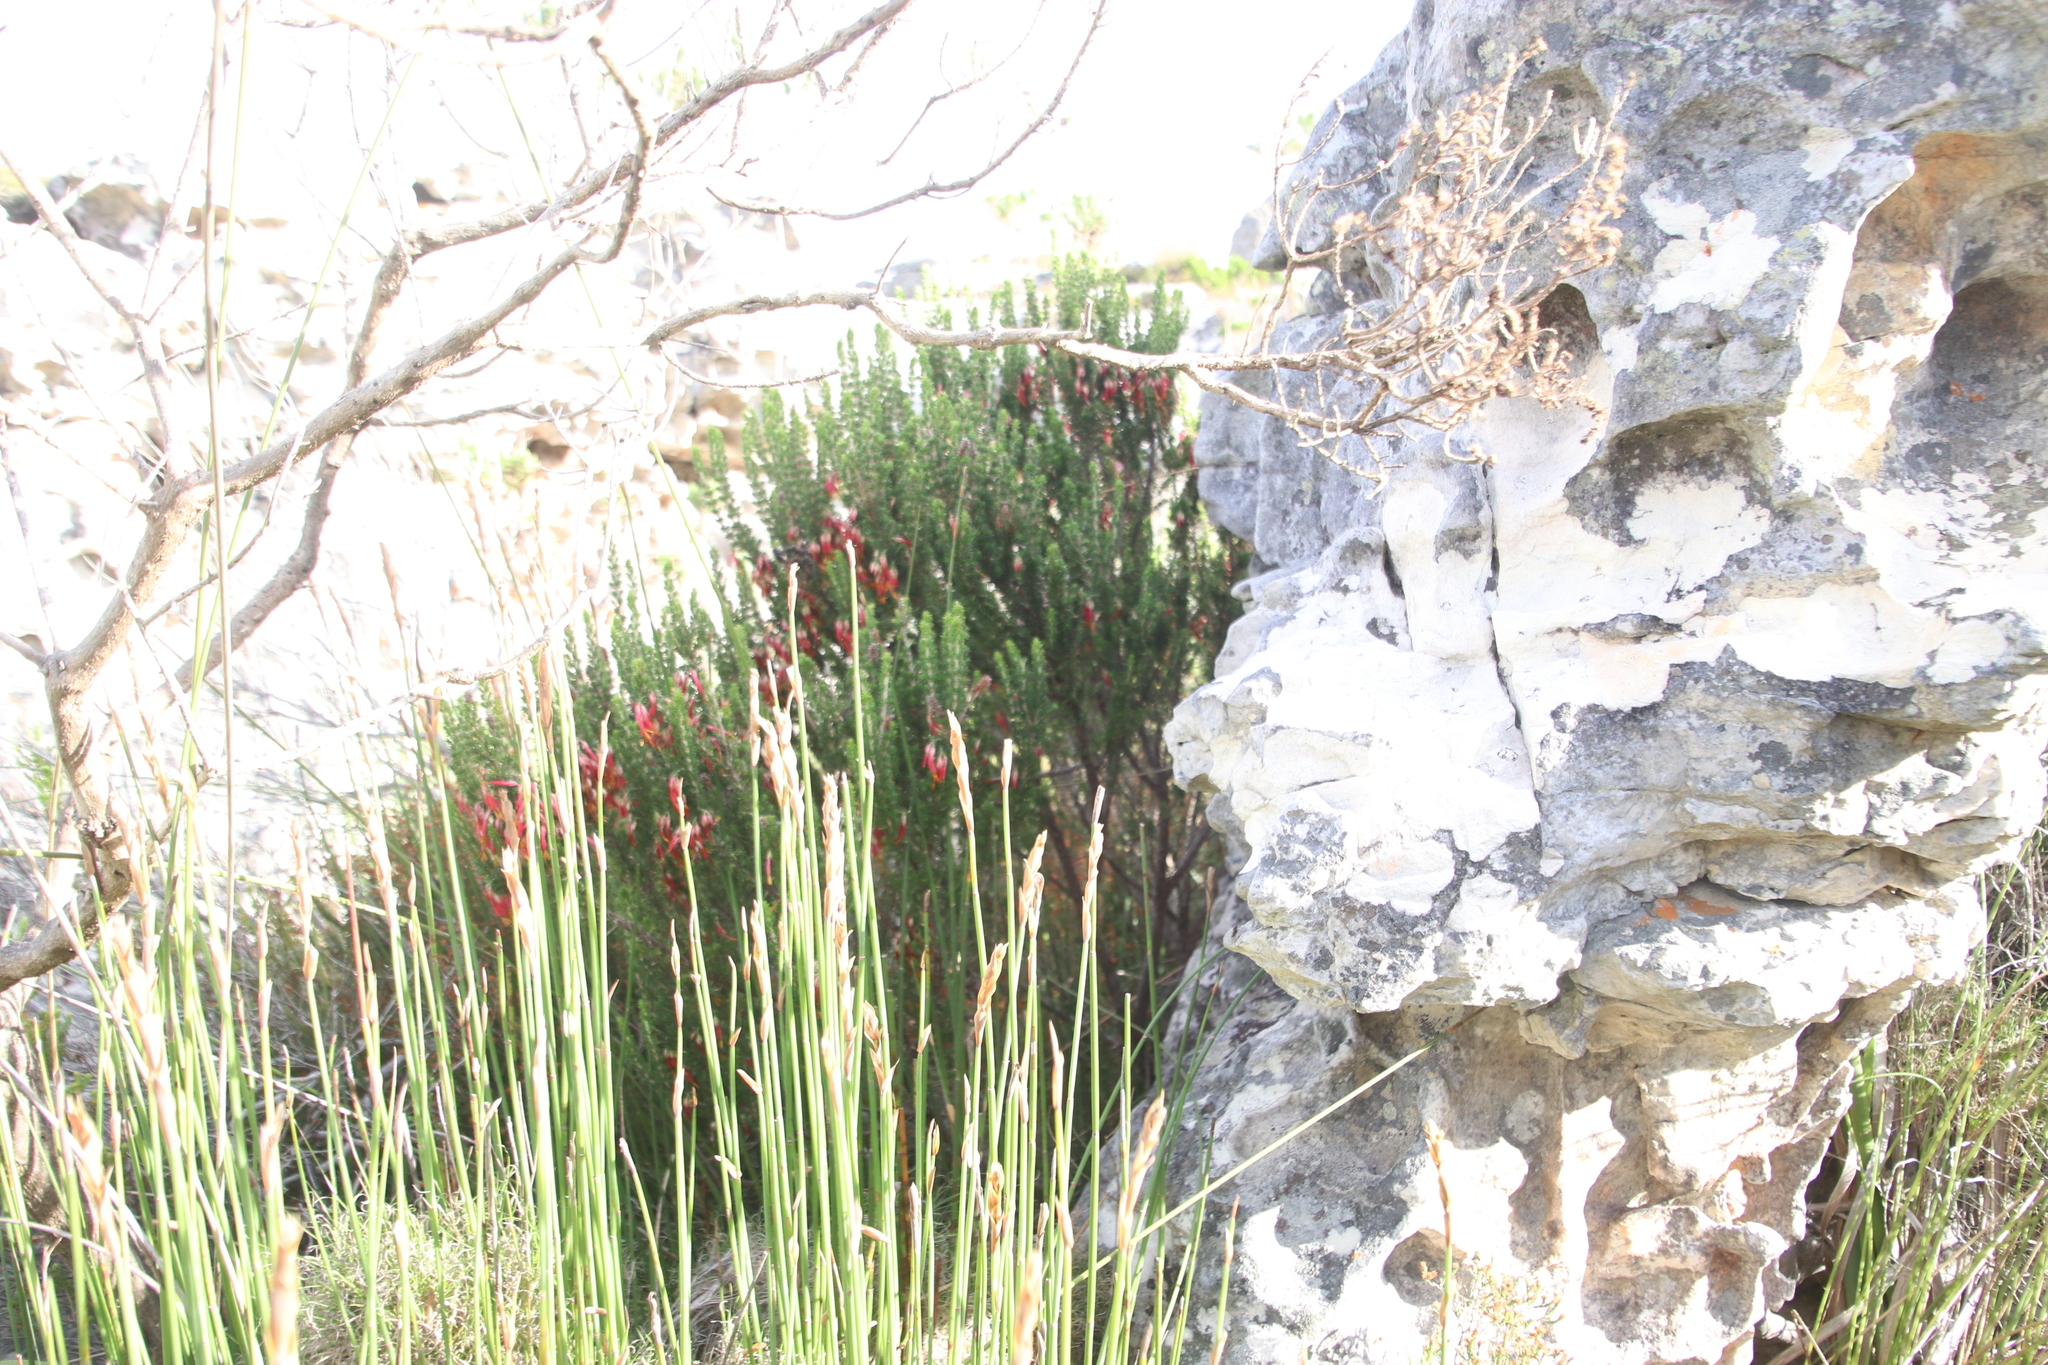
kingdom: Plantae
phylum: Tracheophyta
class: Magnoliopsida
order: Ericales
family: Ericaceae
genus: Erica
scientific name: Erica coccinea
